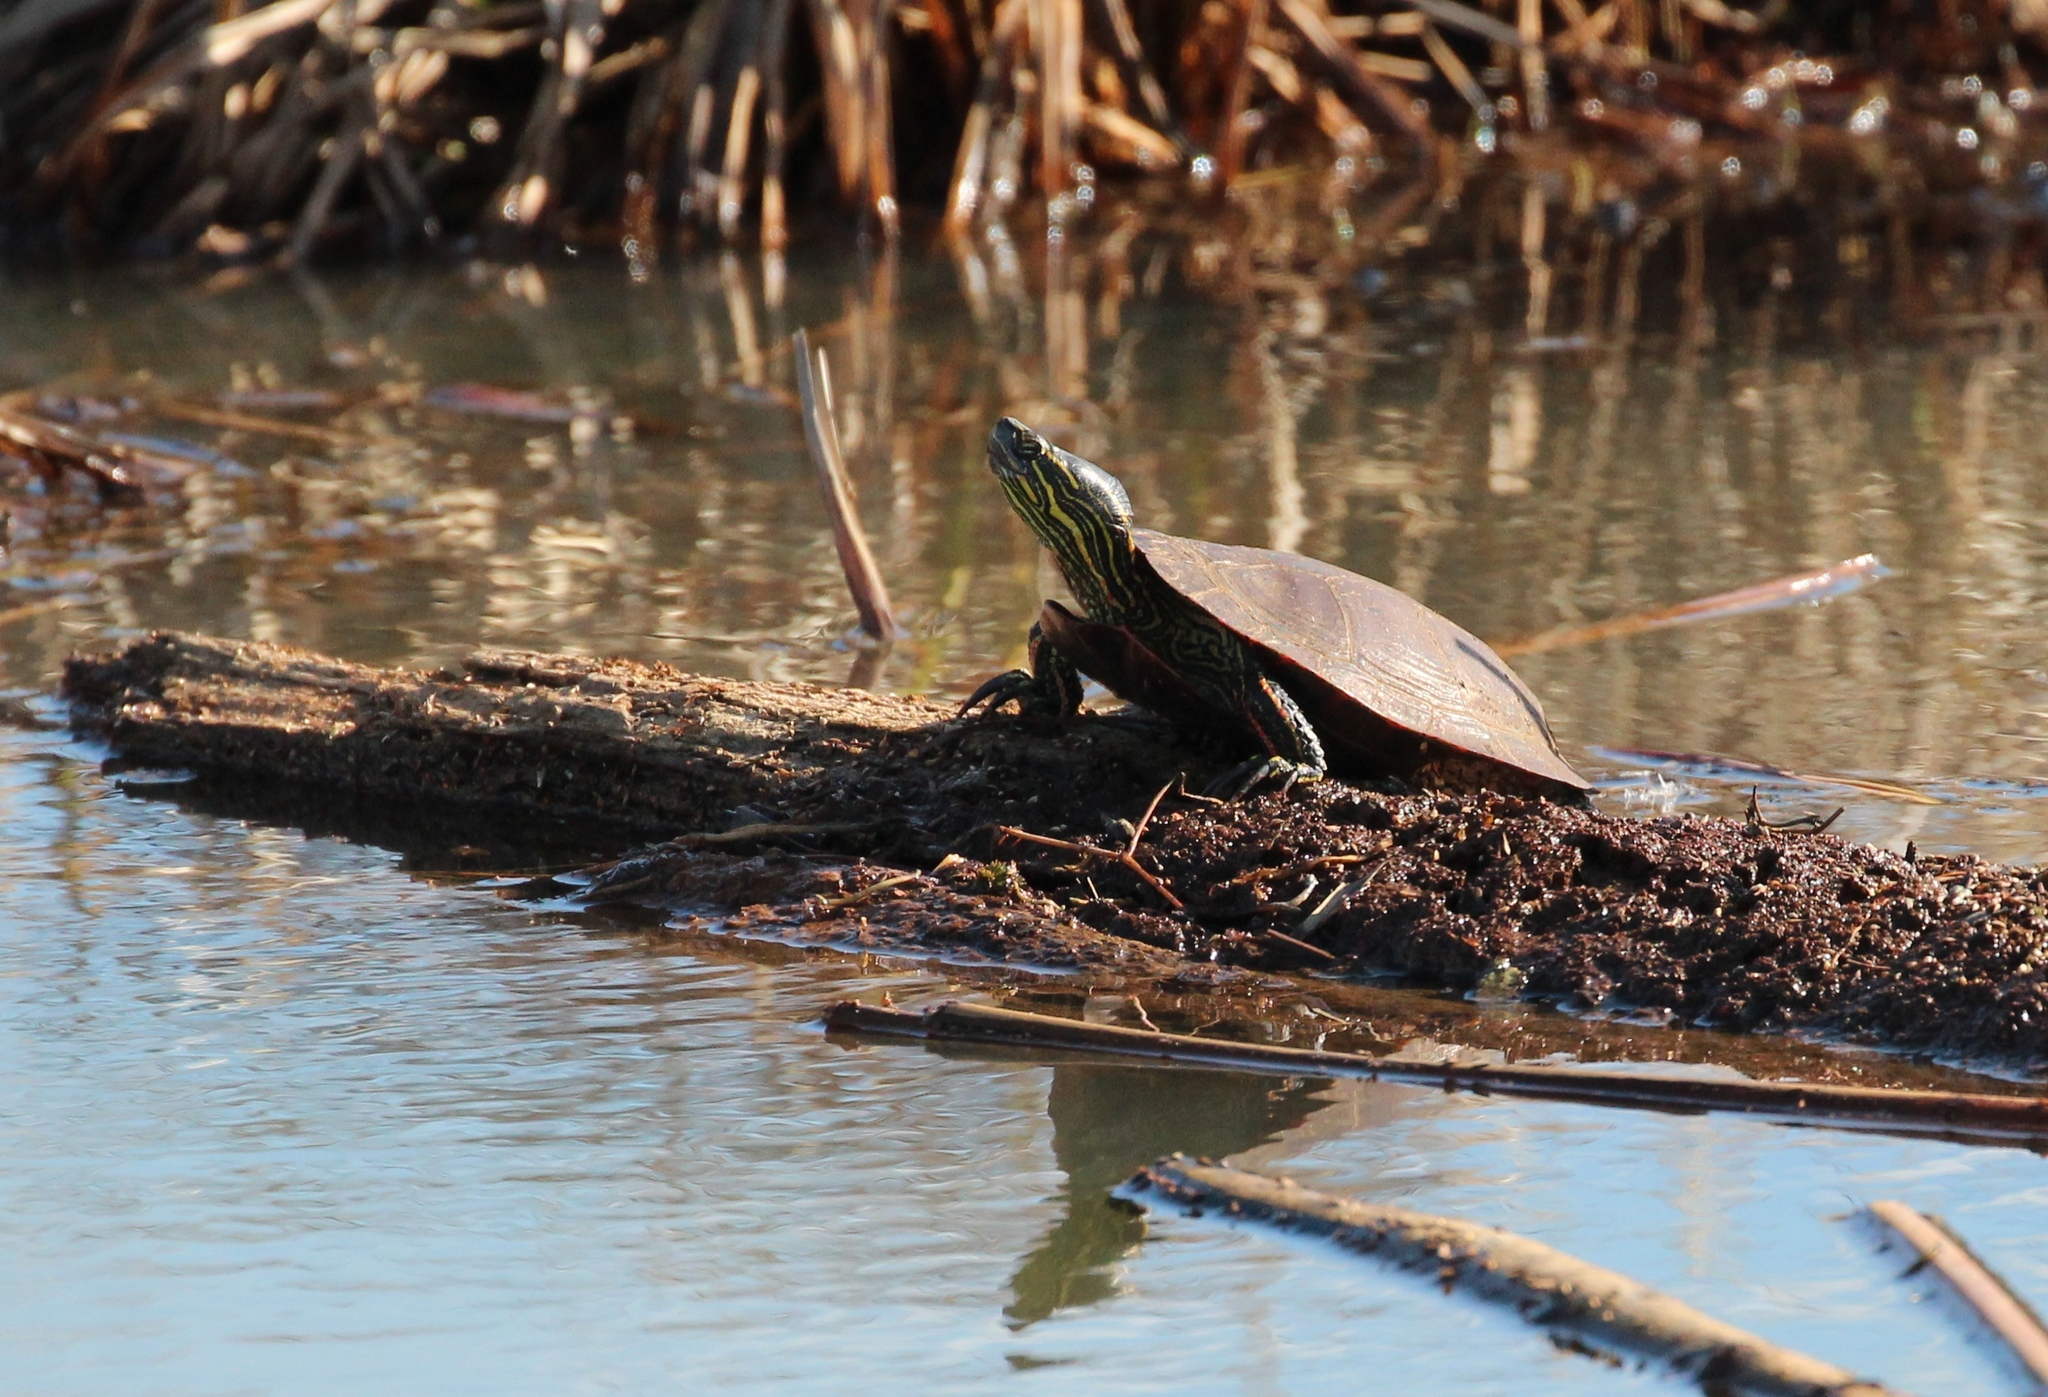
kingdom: Animalia
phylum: Chordata
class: Testudines
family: Emydidae
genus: Chrysemys
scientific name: Chrysemys picta
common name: Painted turtle
